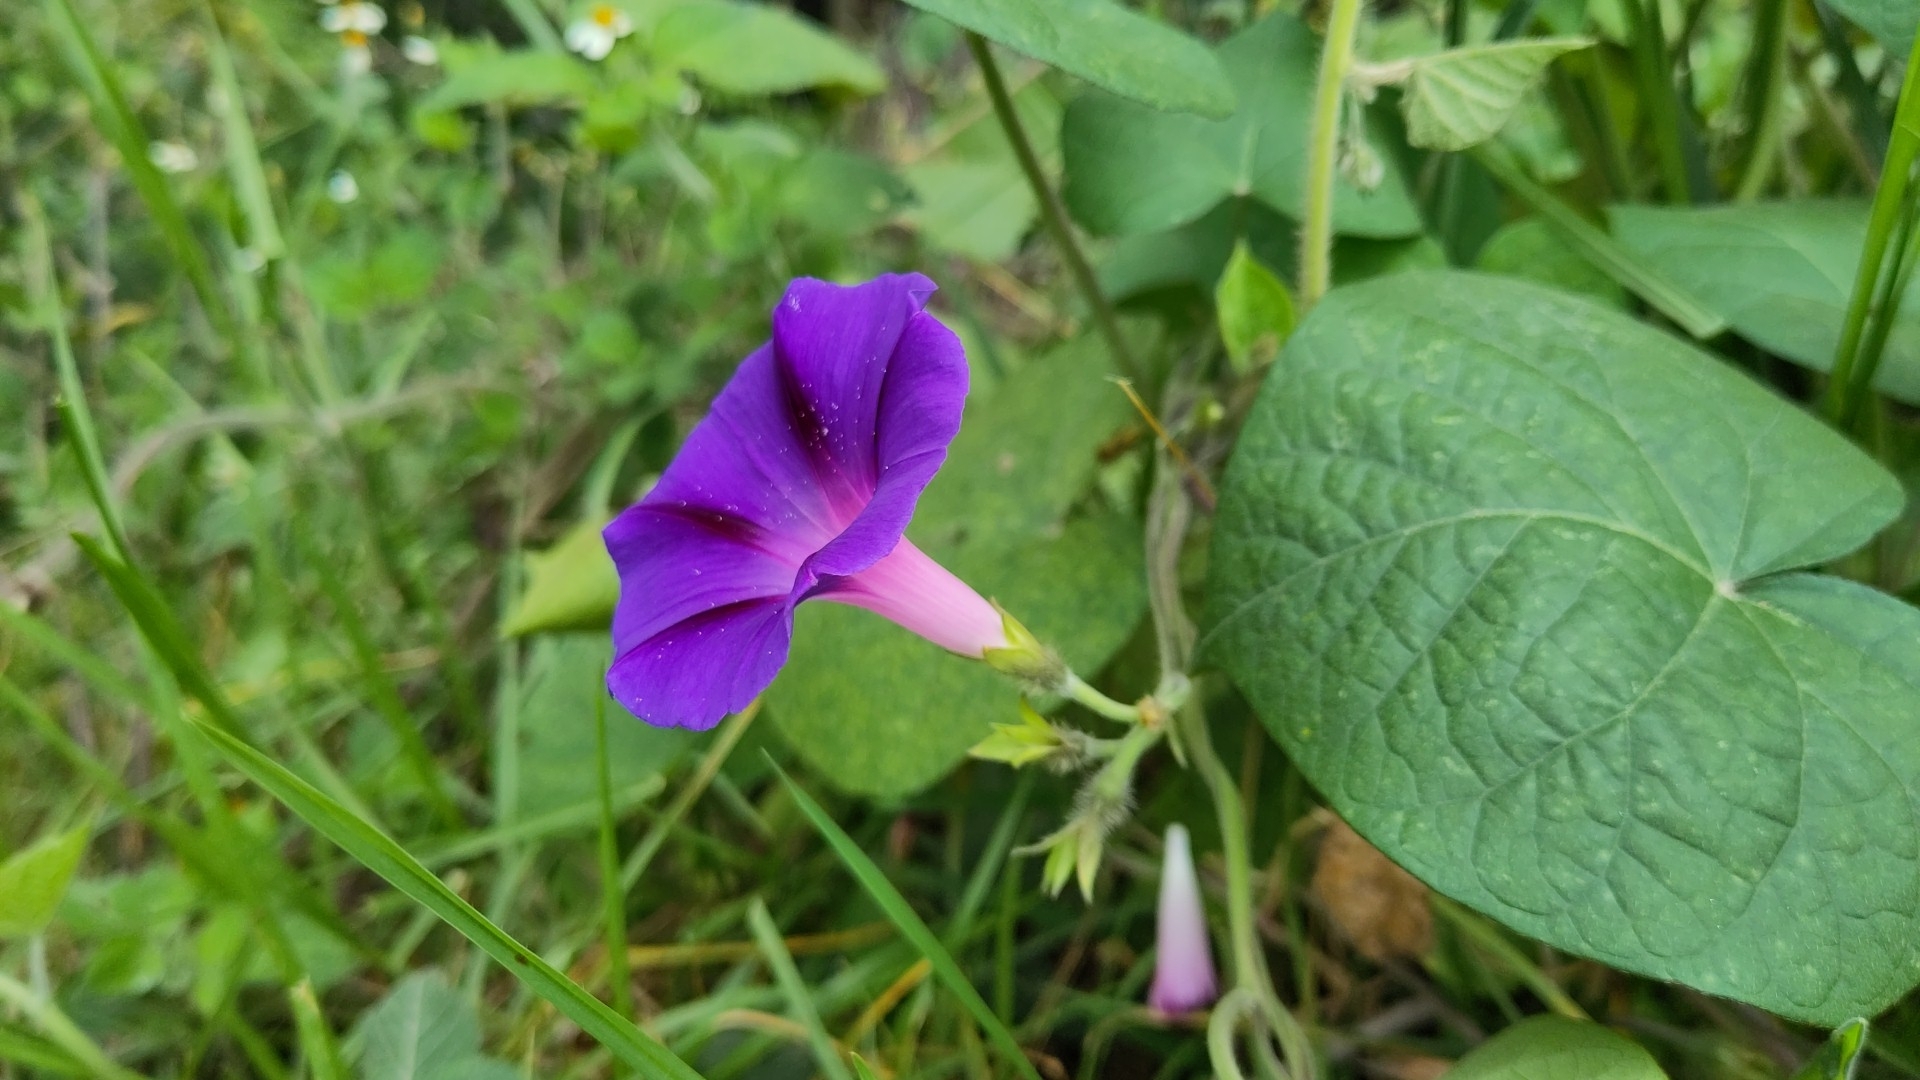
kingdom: Plantae
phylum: Tracheophyta
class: Magnoliopsida
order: Solanales
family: Convolvulaceae
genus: Ipomoea
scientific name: Ipomoea purpurea
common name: Common morning-glory
